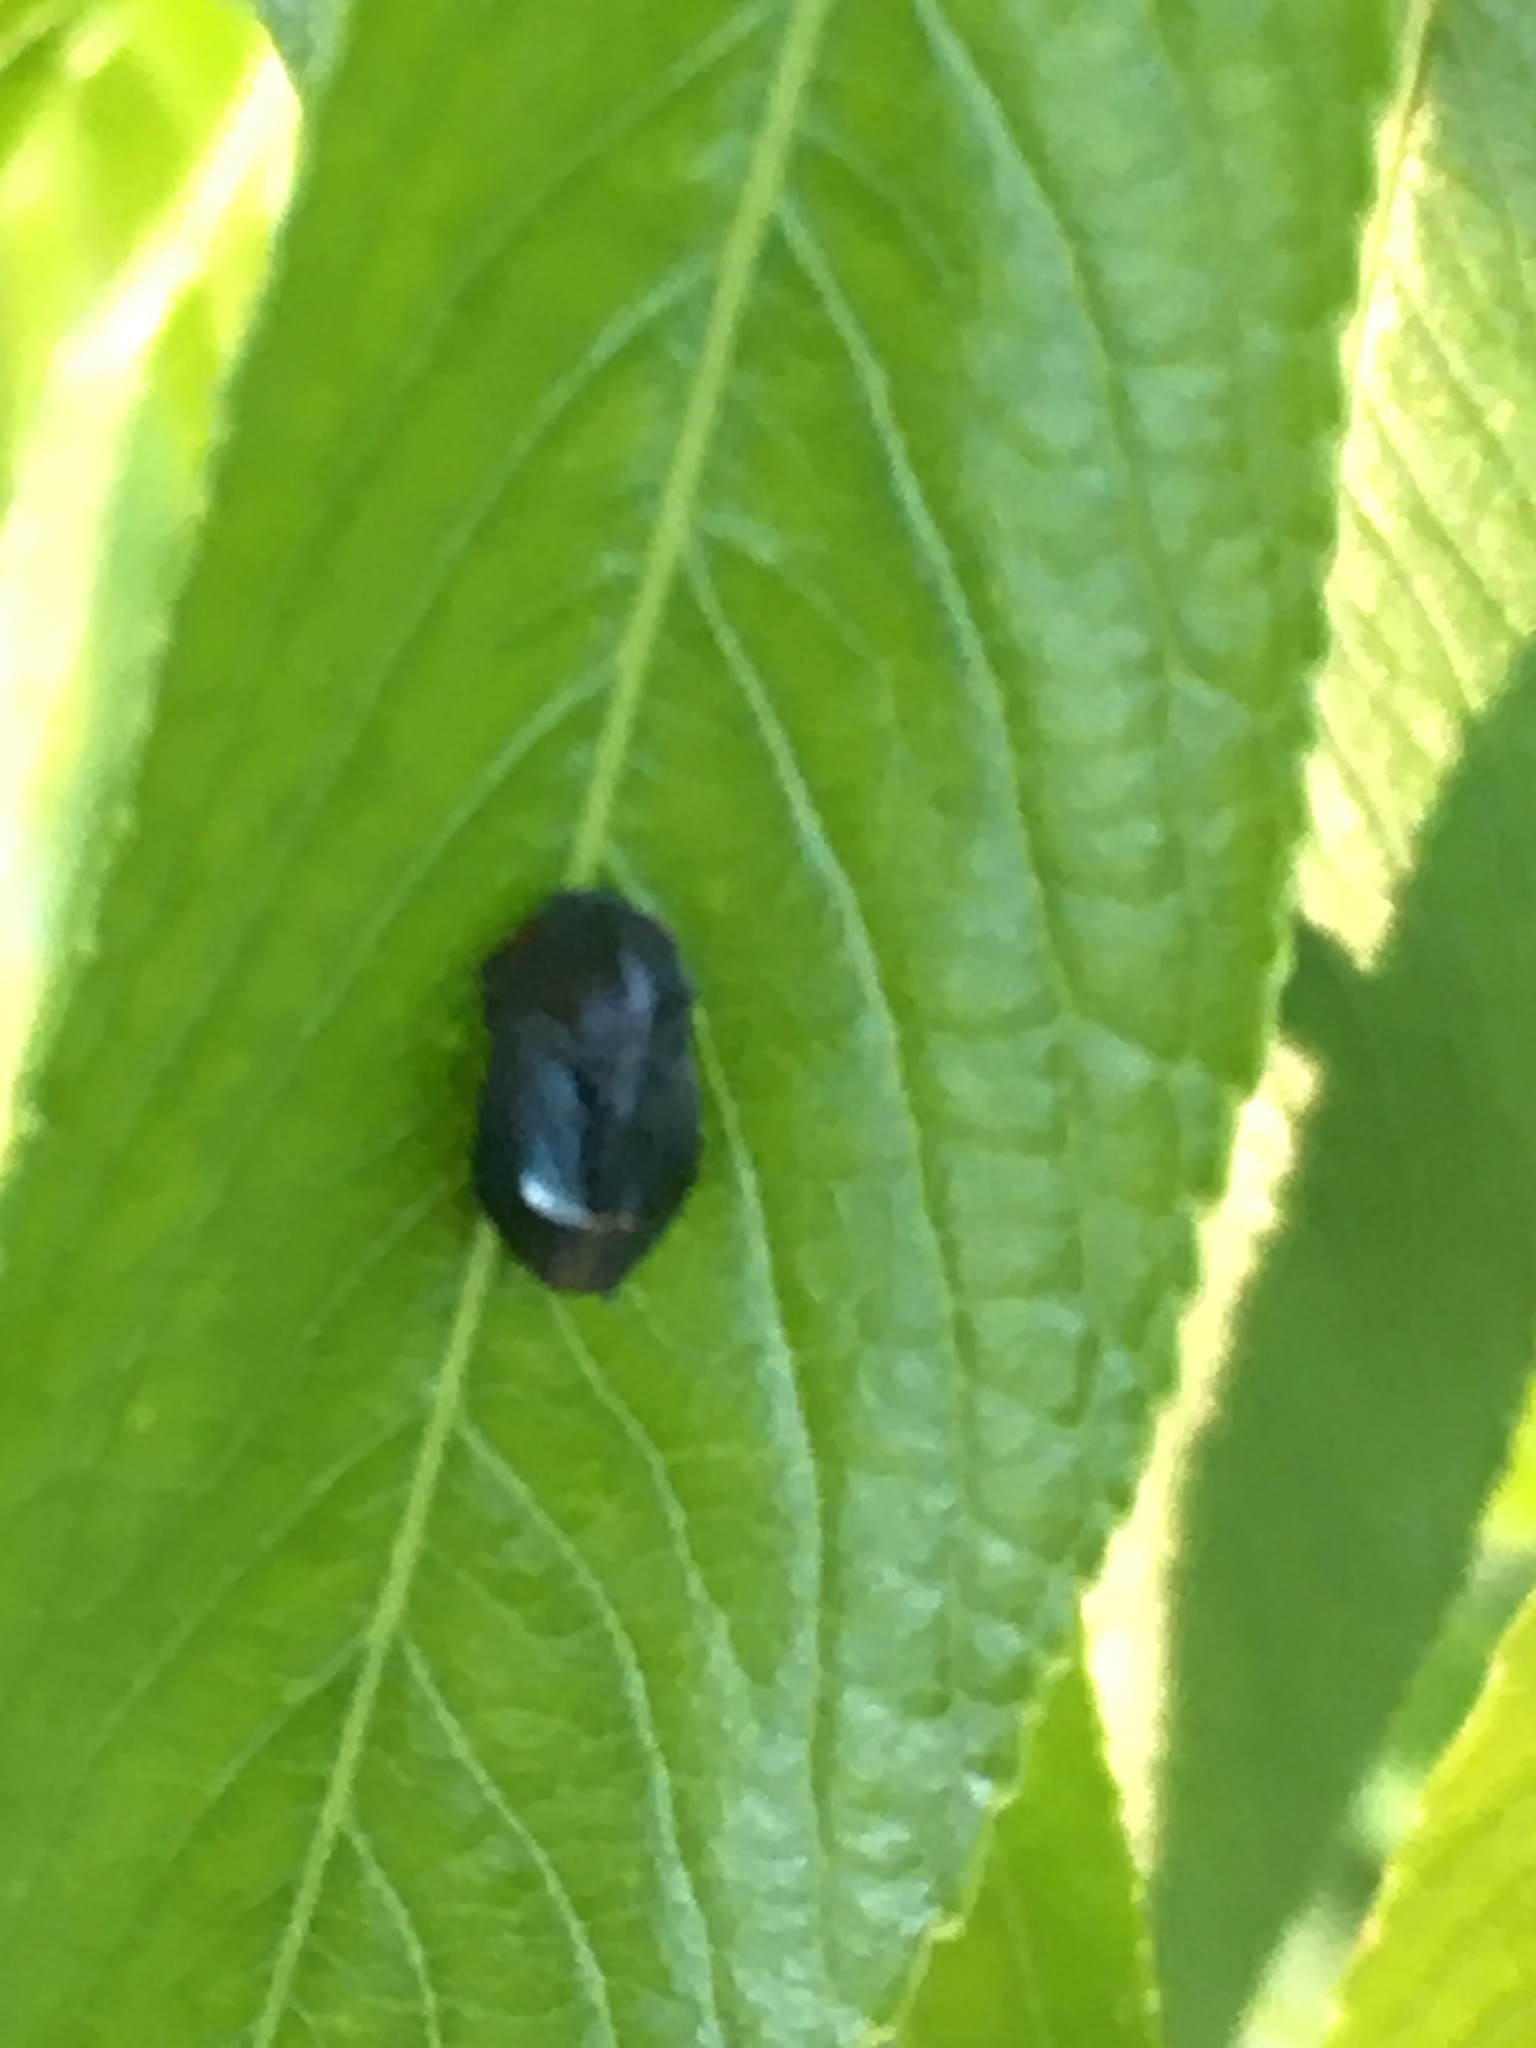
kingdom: Animalia
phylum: Arthropoda
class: Insecta
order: Hemiptera
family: Cicadellidae
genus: Penthimia
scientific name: Penthimia nigra
